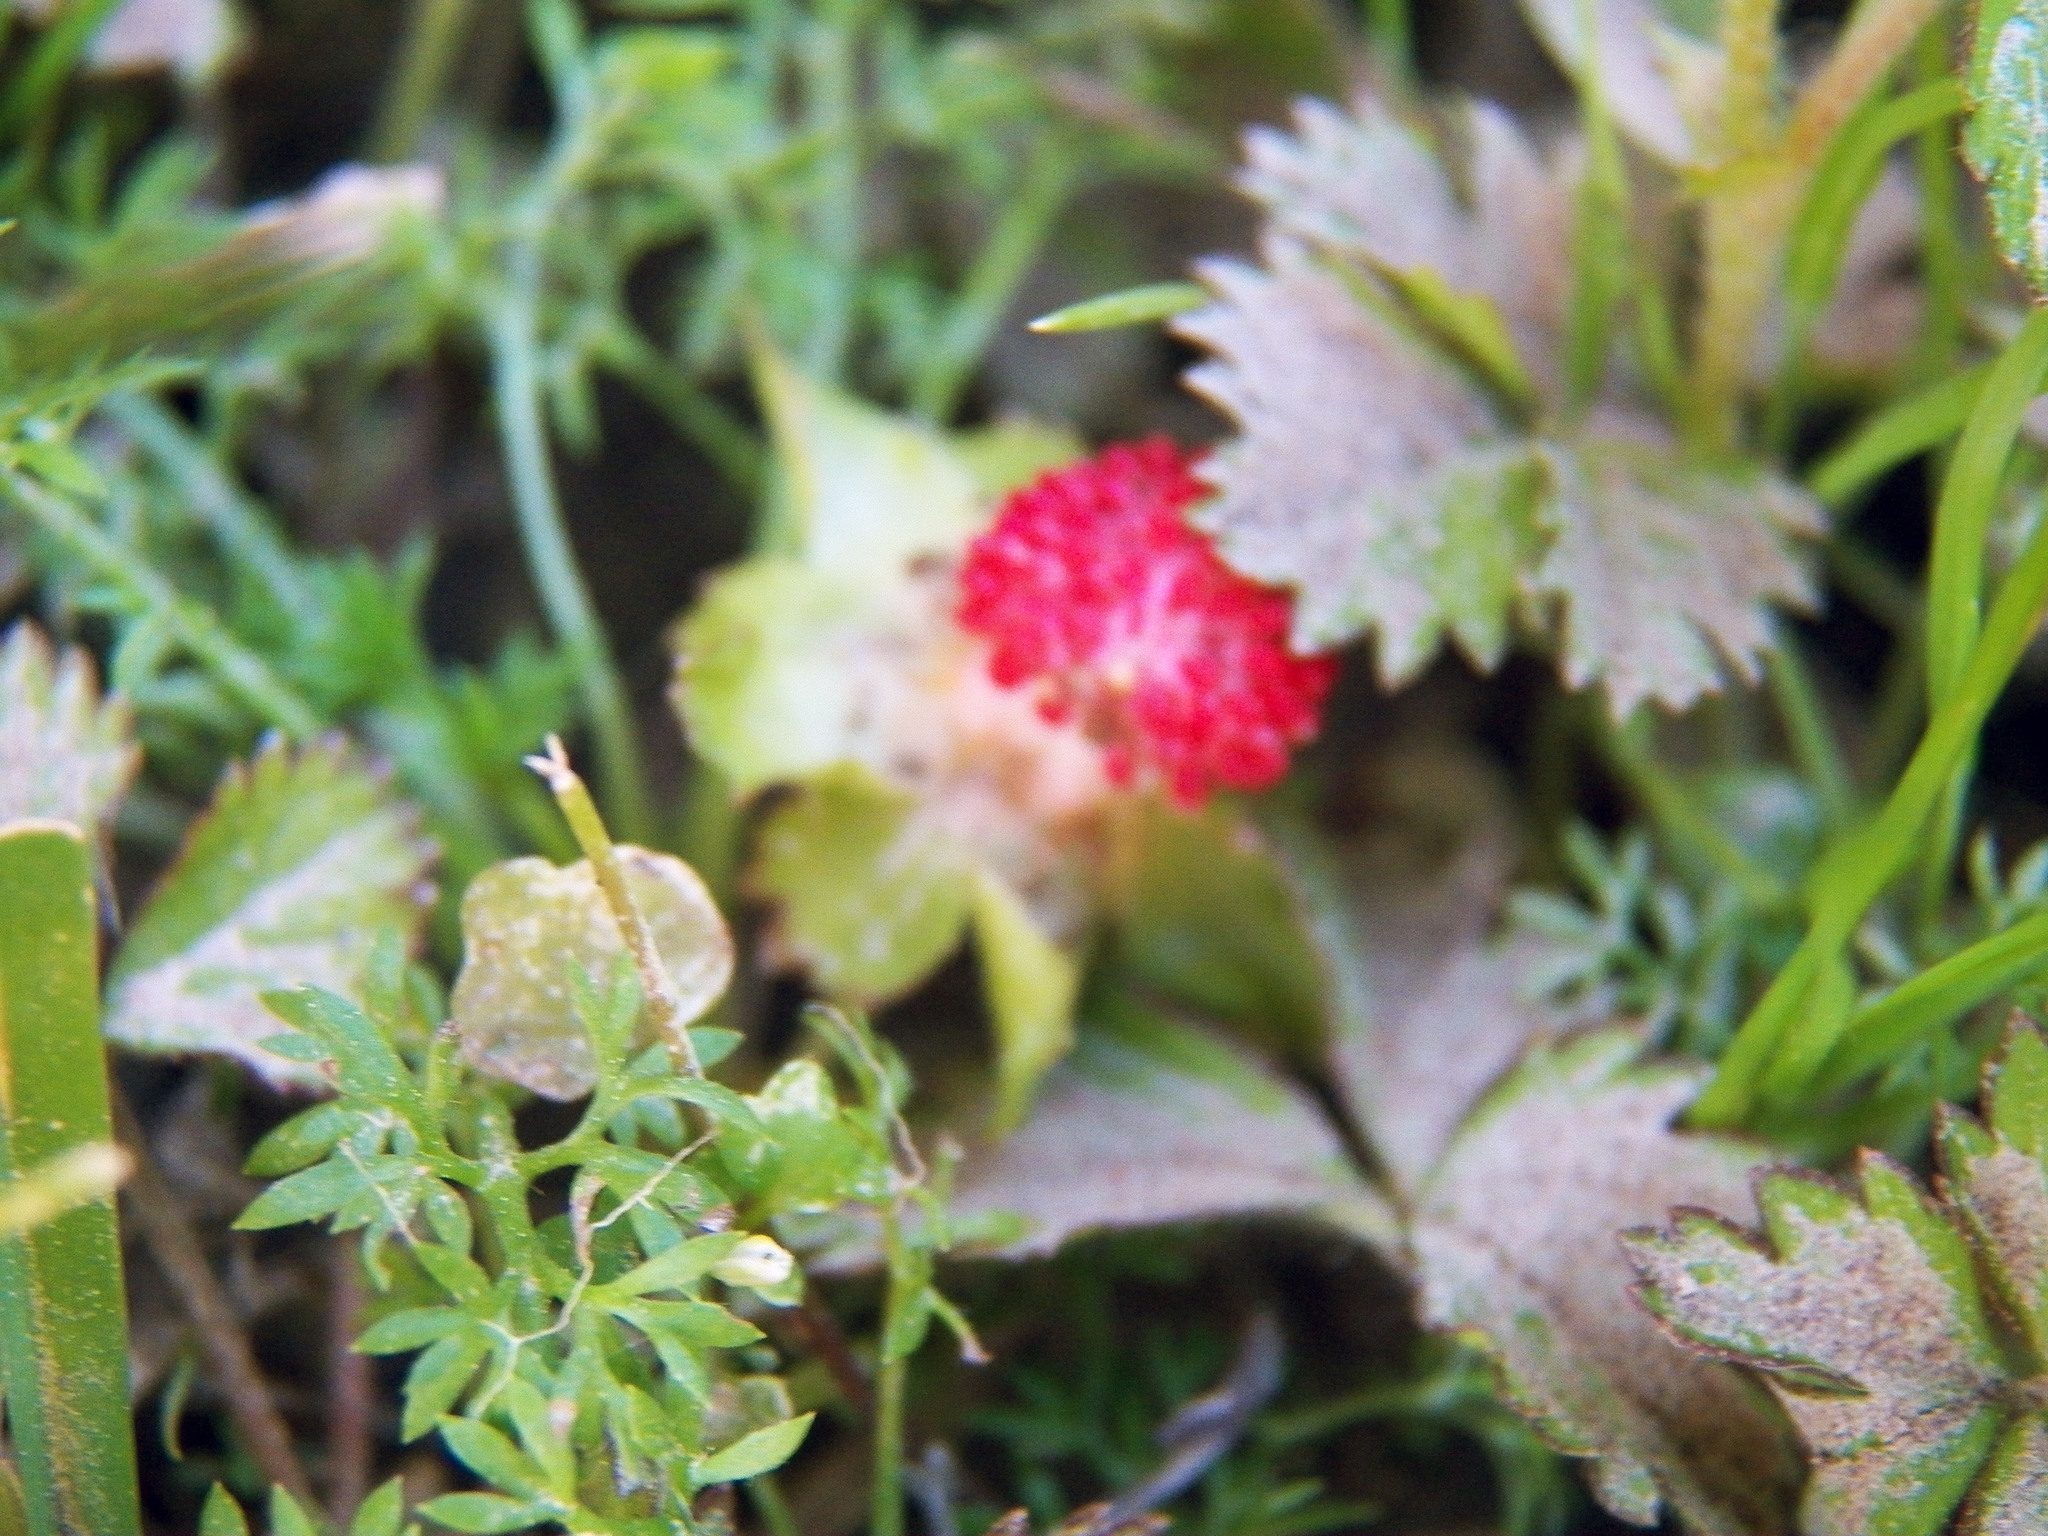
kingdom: Plantae
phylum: Tracheophyta
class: Magnoliopsida
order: Rosales
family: Rosaceae
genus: Potentilla
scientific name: Potentilla indica
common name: Yellow-flowered strawberry
